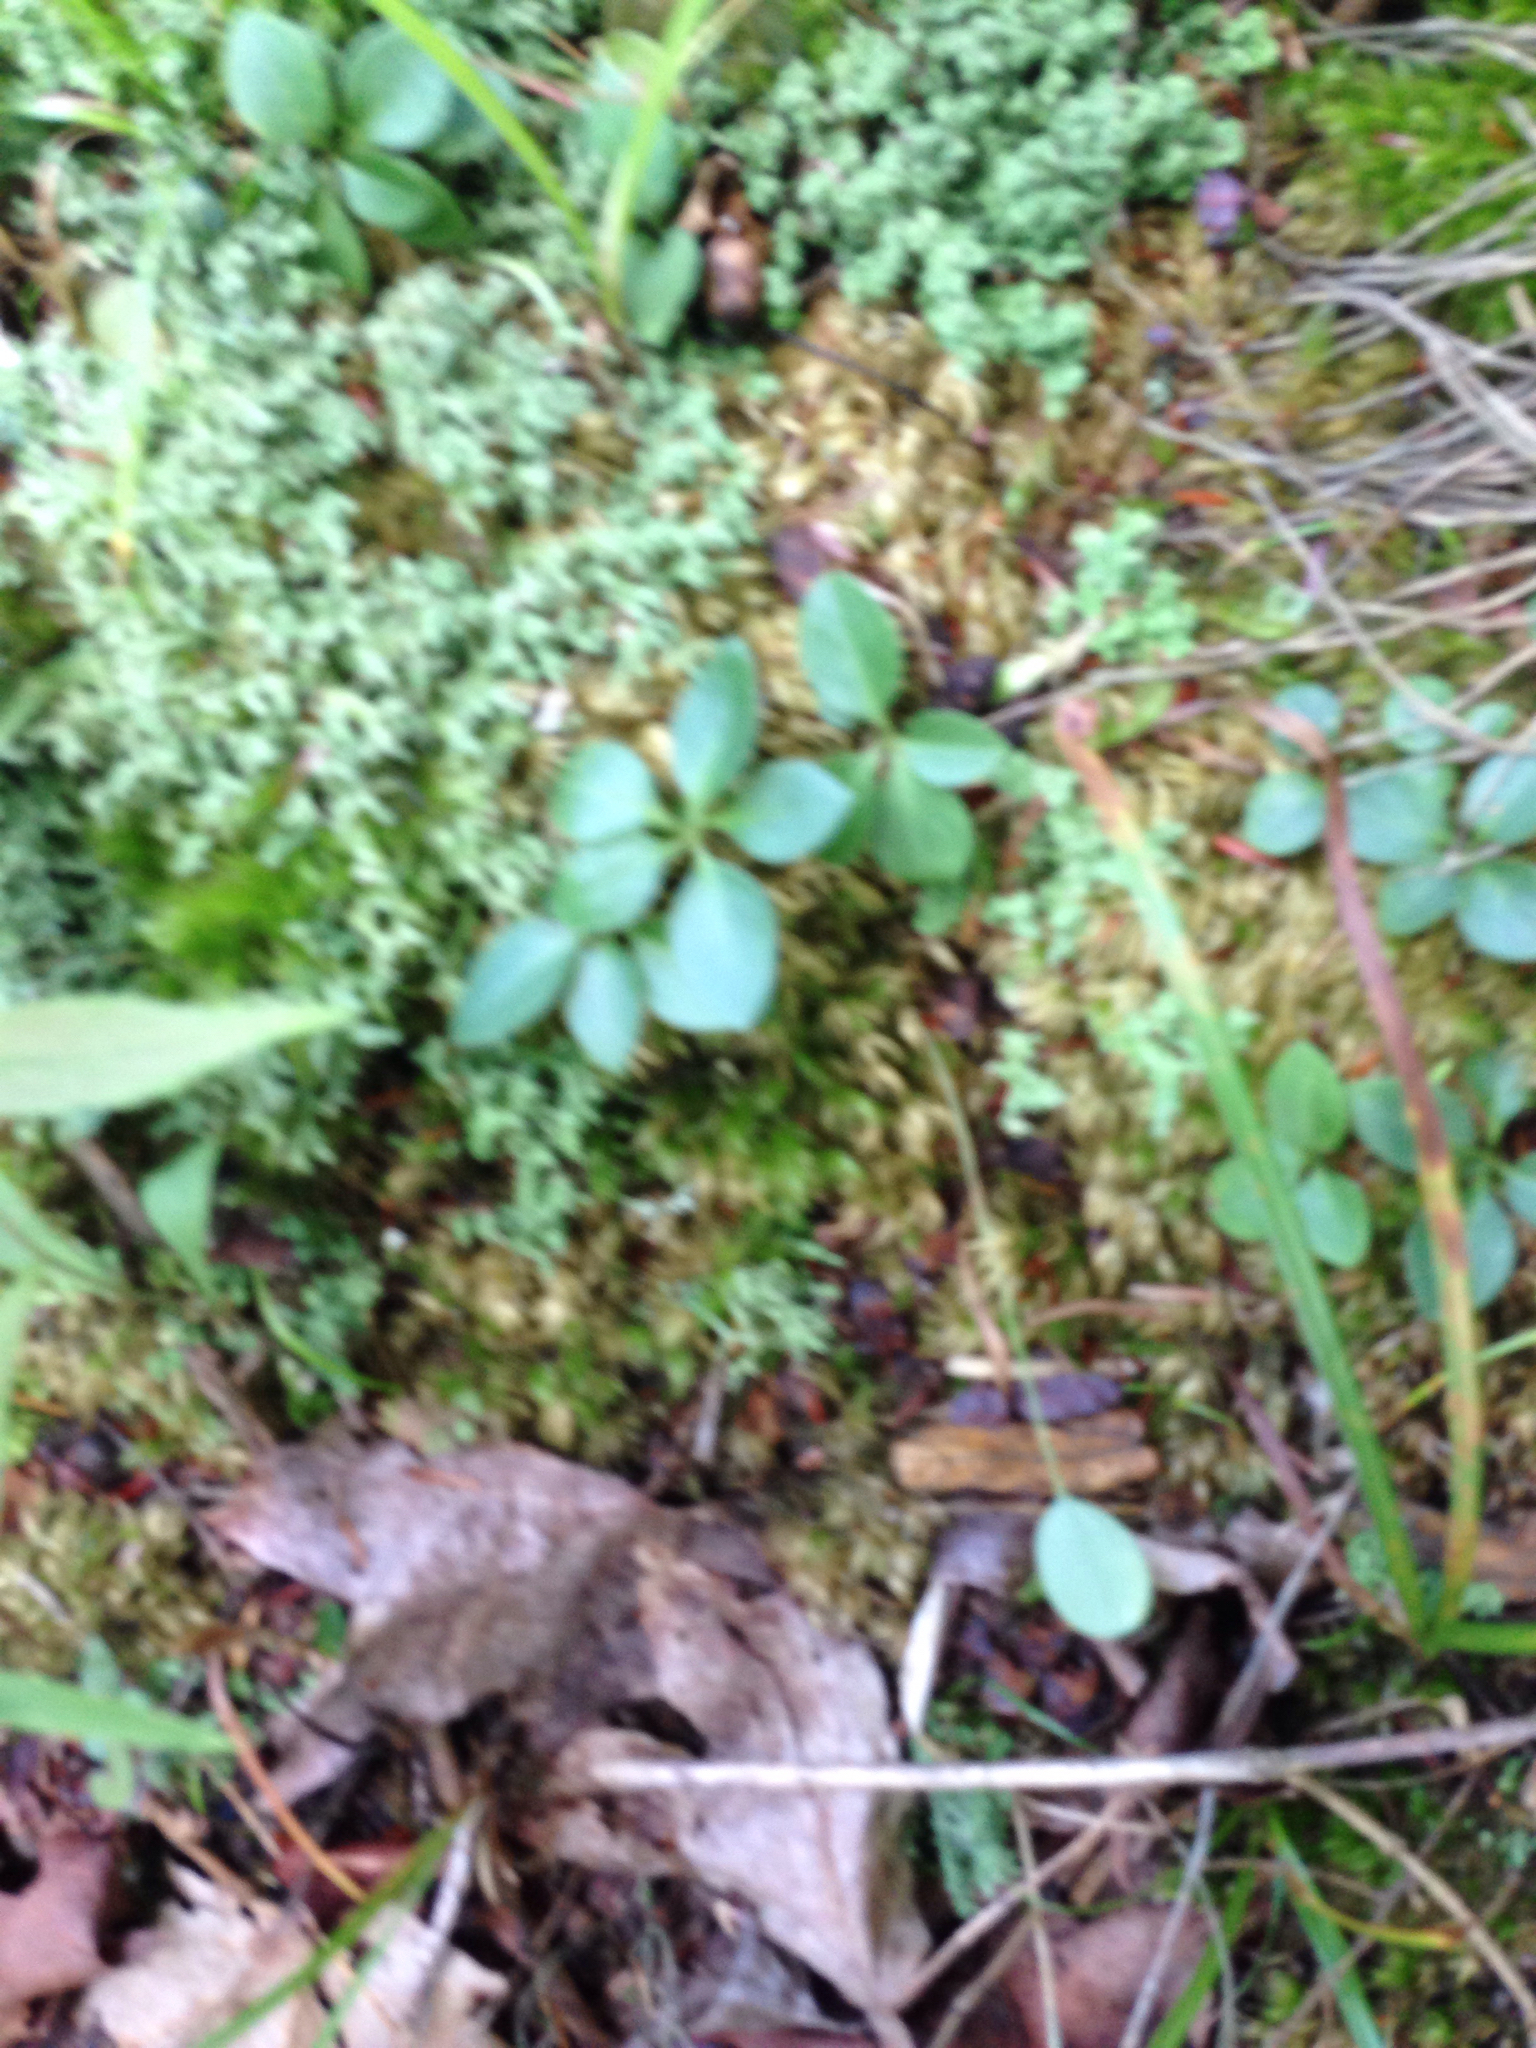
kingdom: Plantae
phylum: Tracheophyta
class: Magnoliopsida
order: Fabales
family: Polygalaceae
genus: Polygaloides
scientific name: Polygaloides paucifolia
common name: Bird-on-the-wing
